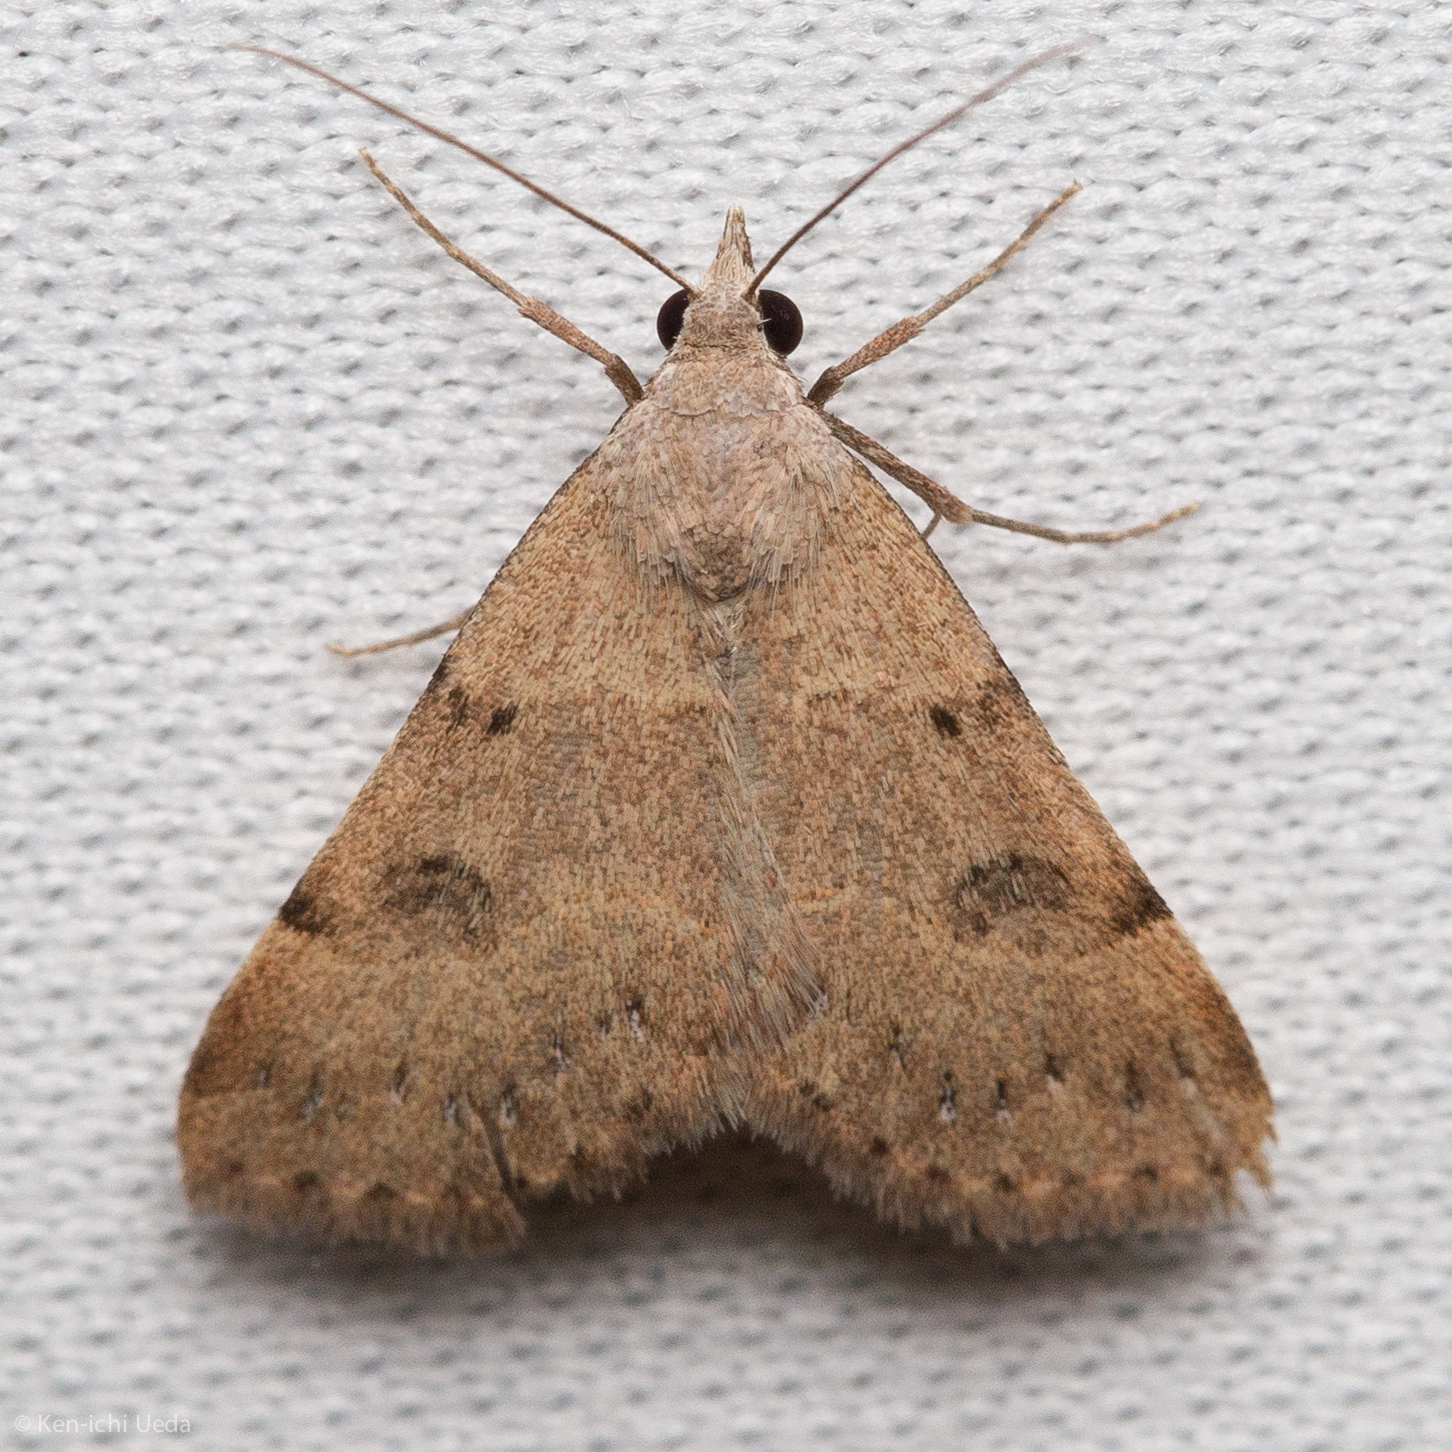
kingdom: Animalia
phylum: Arthropoda
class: Insecta
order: Lepidoptera
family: Erebidae
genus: Hemeroplanis
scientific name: Hemeroplanis historialis
